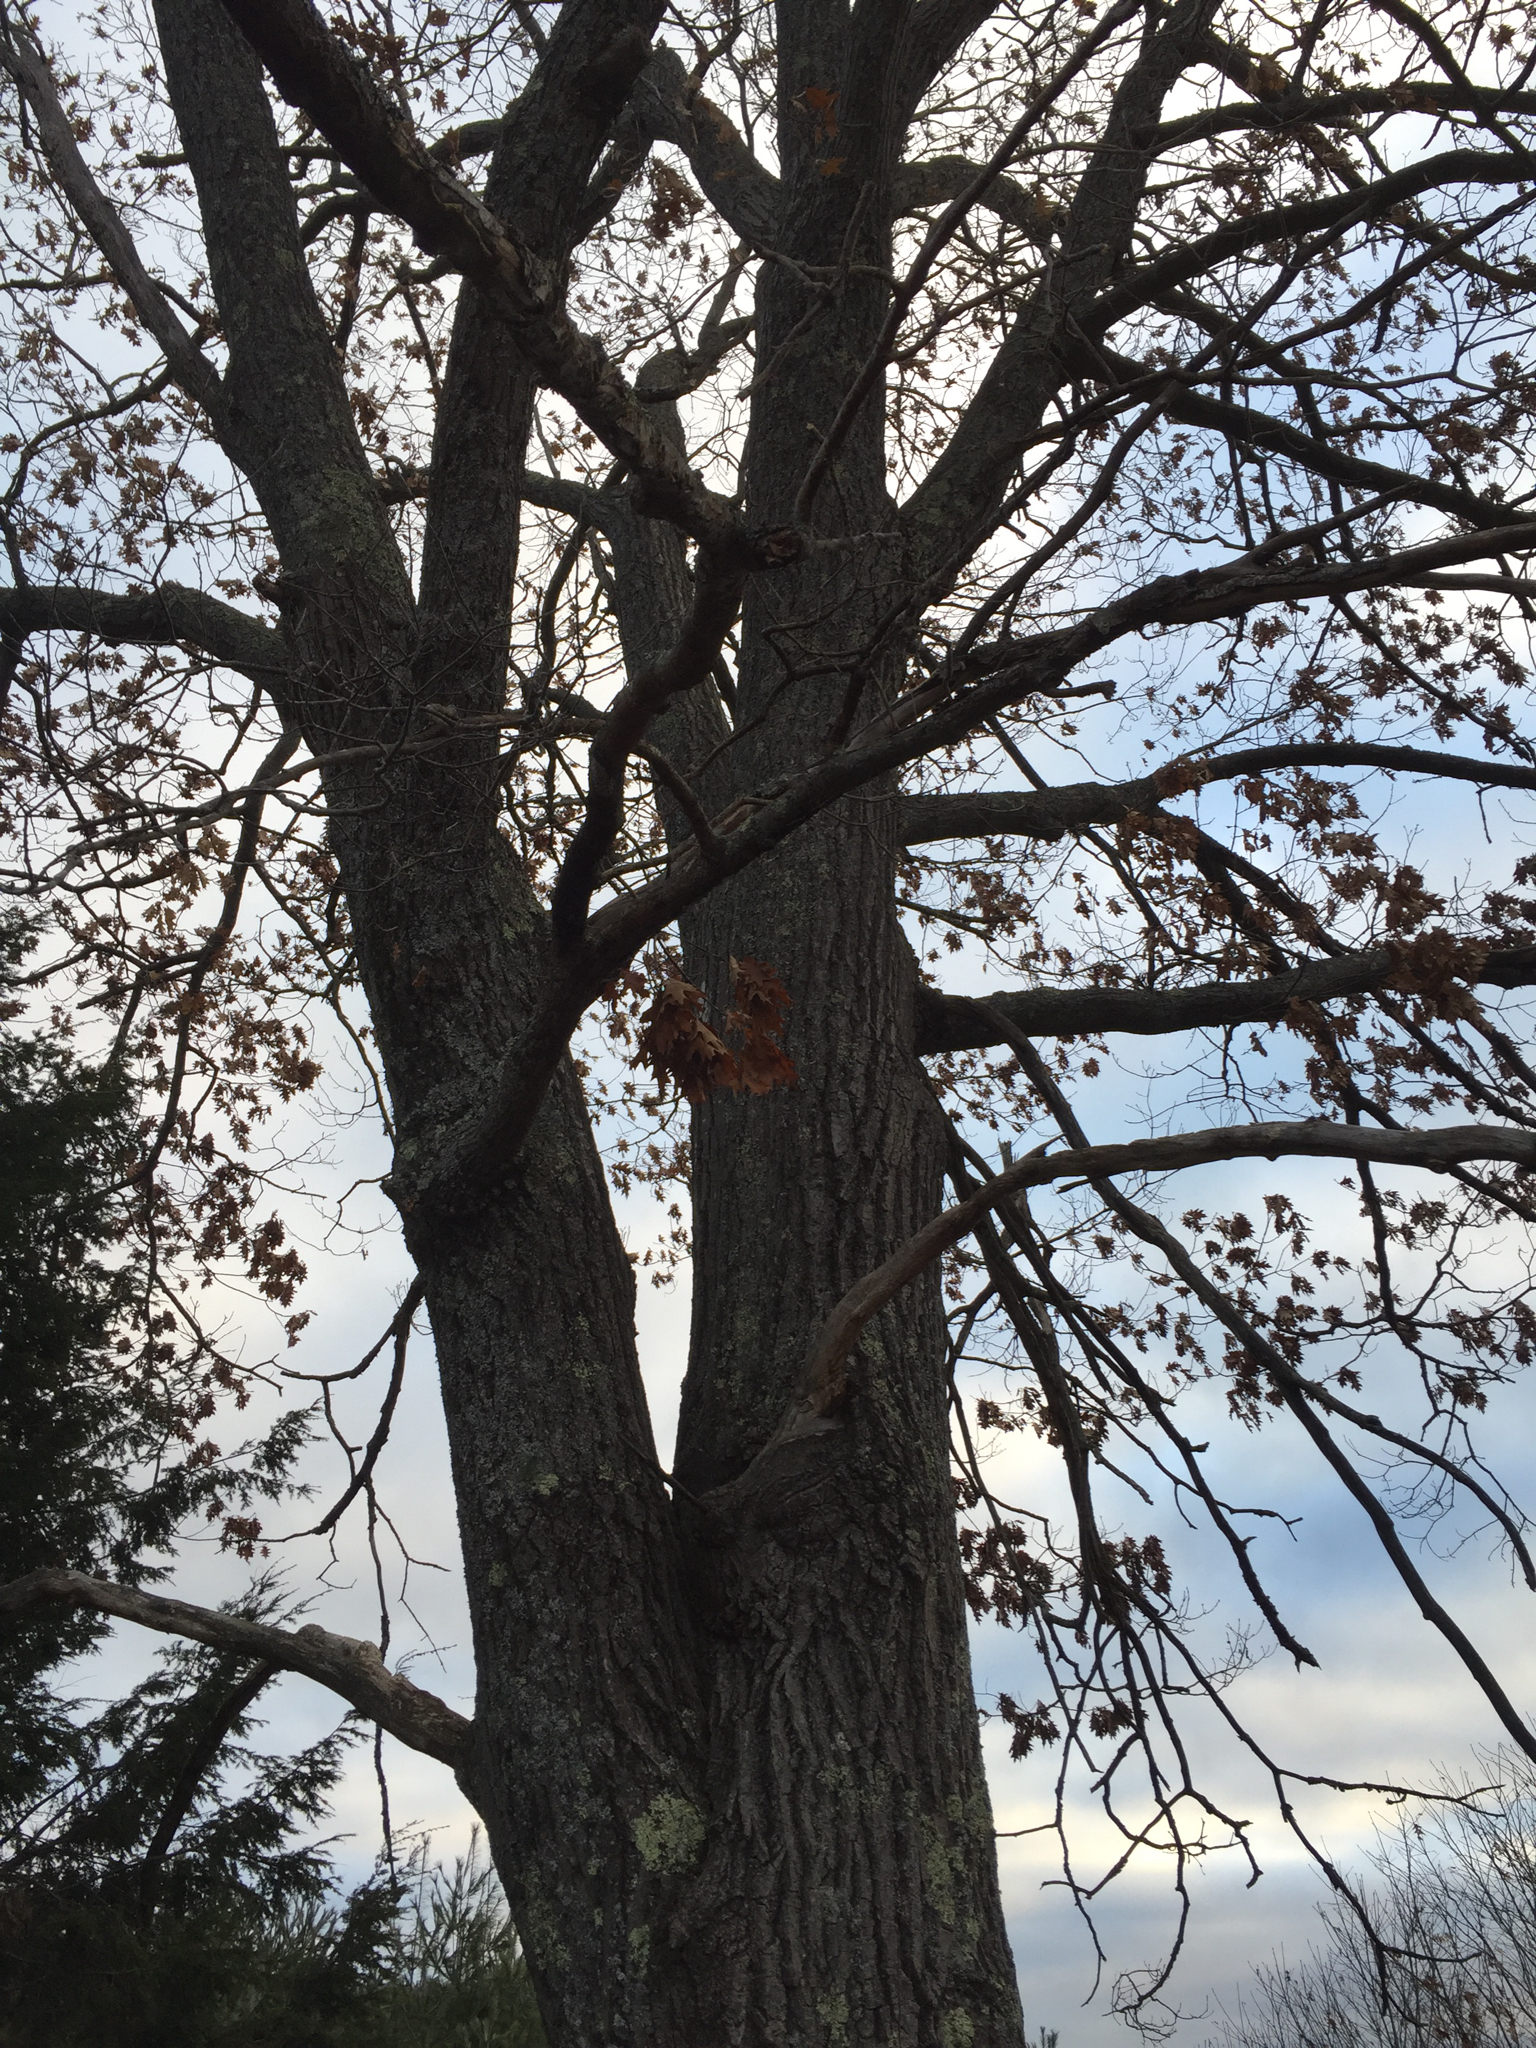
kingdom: Plantae
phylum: Tracheophyta
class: Magnoliopsida
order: Fagales
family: Fagaceae
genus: Quercus
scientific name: Quercus rubra
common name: Red oak
